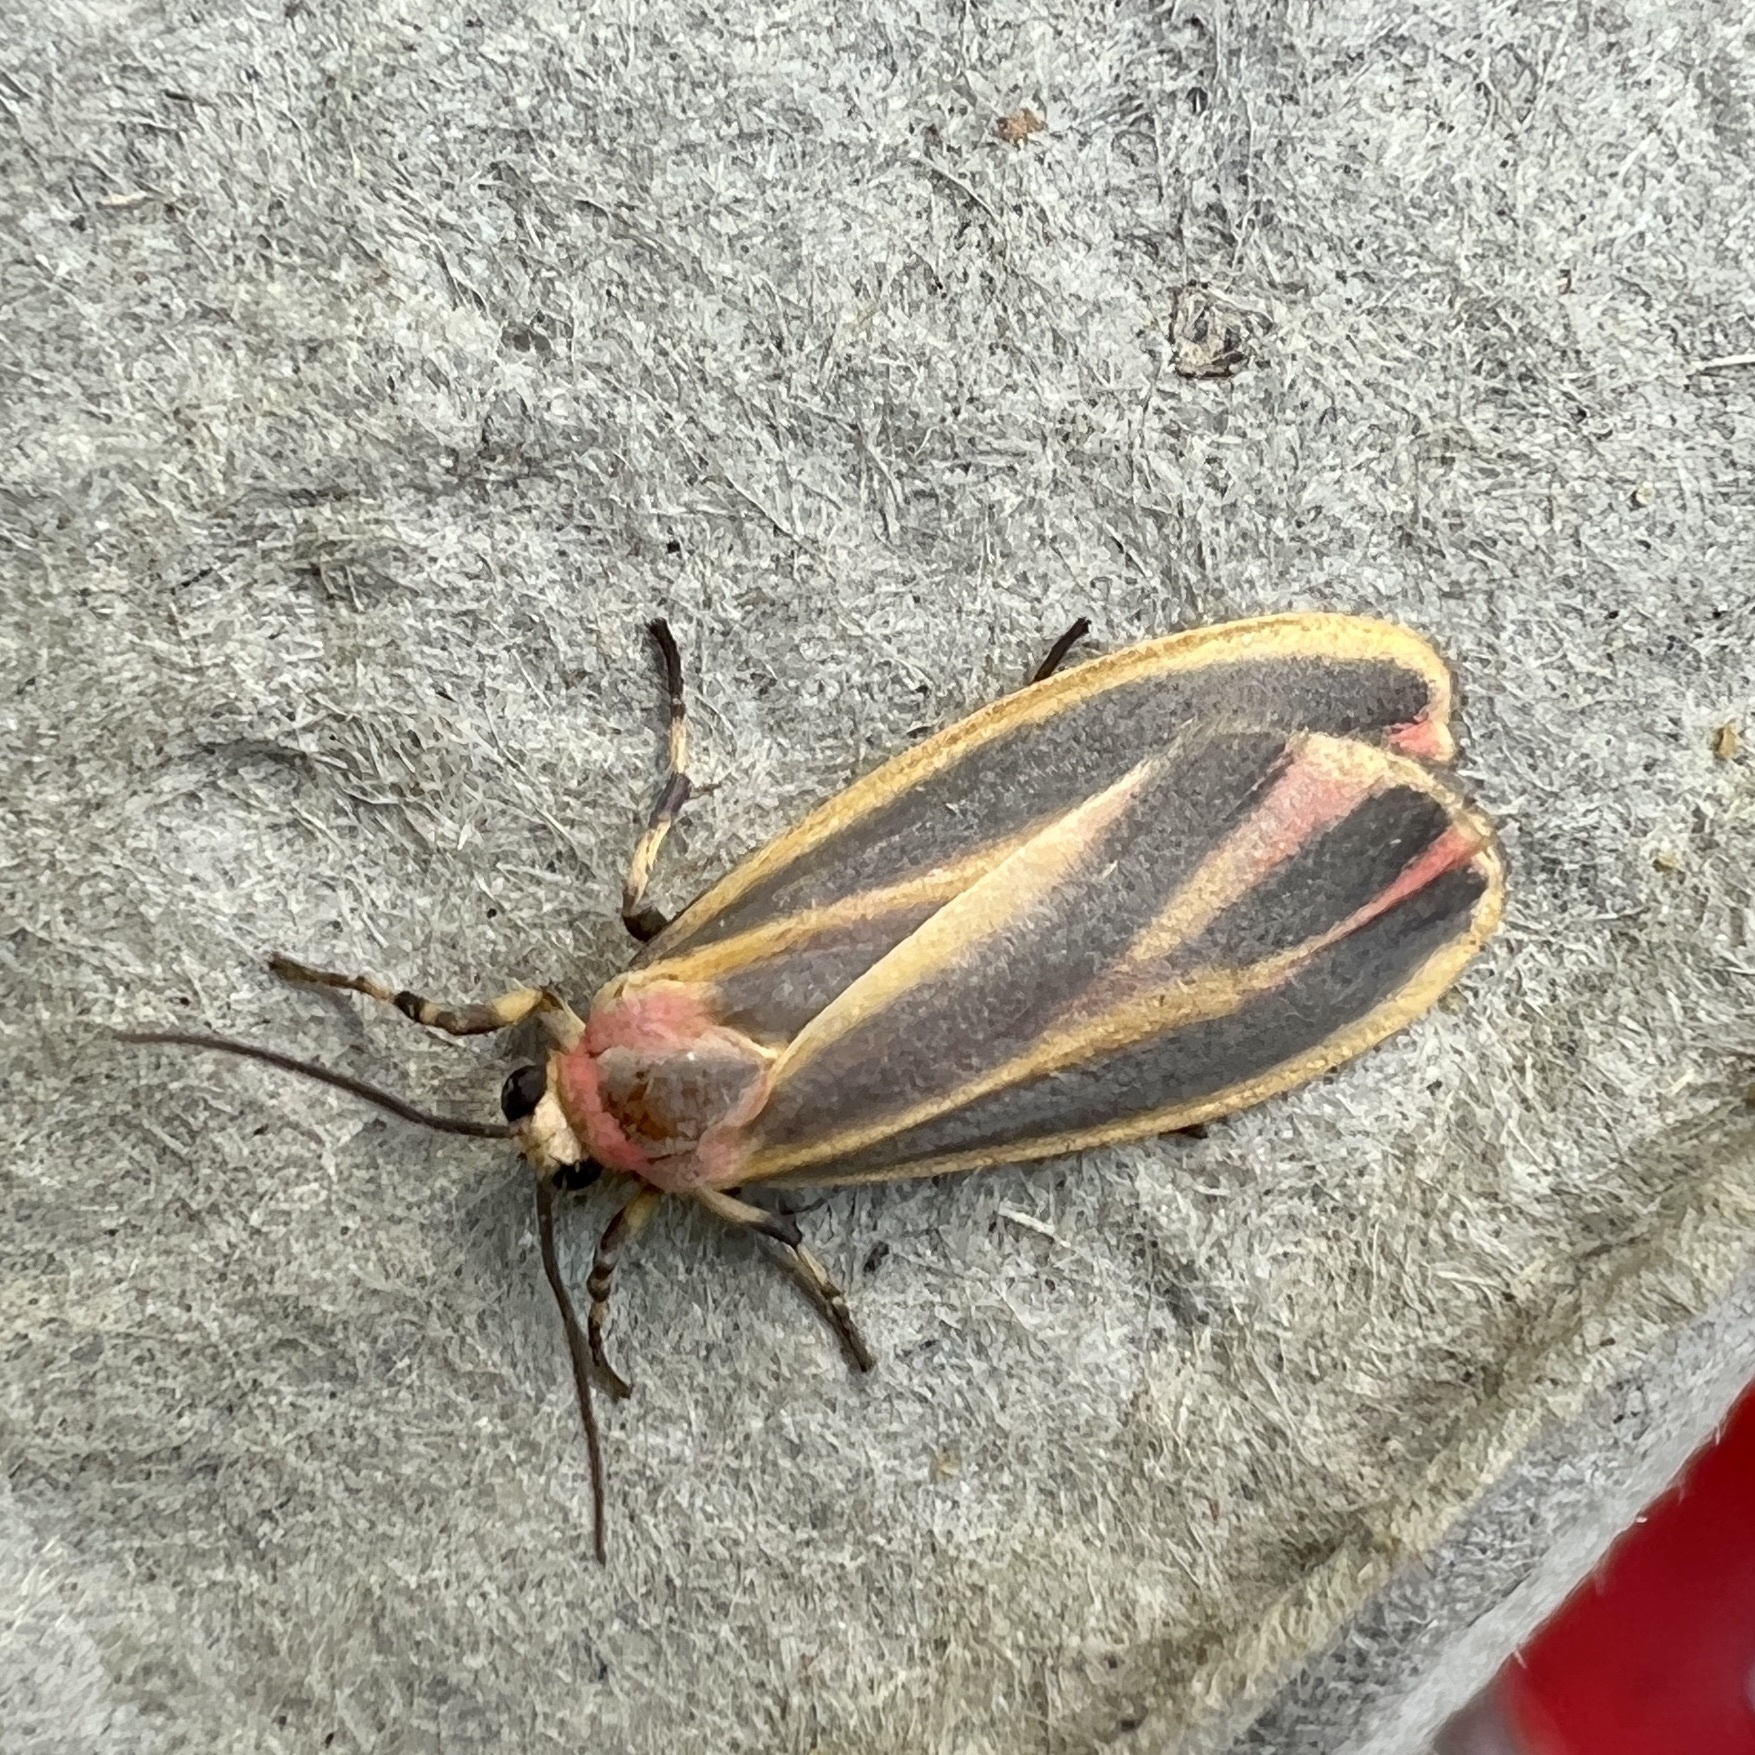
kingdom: Animalia
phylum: Arthropoda
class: Insecta
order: Lepidoptera
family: Erebidae
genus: Hypoprepia
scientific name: Hypoprepia fucosa
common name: Painted lichen moth
